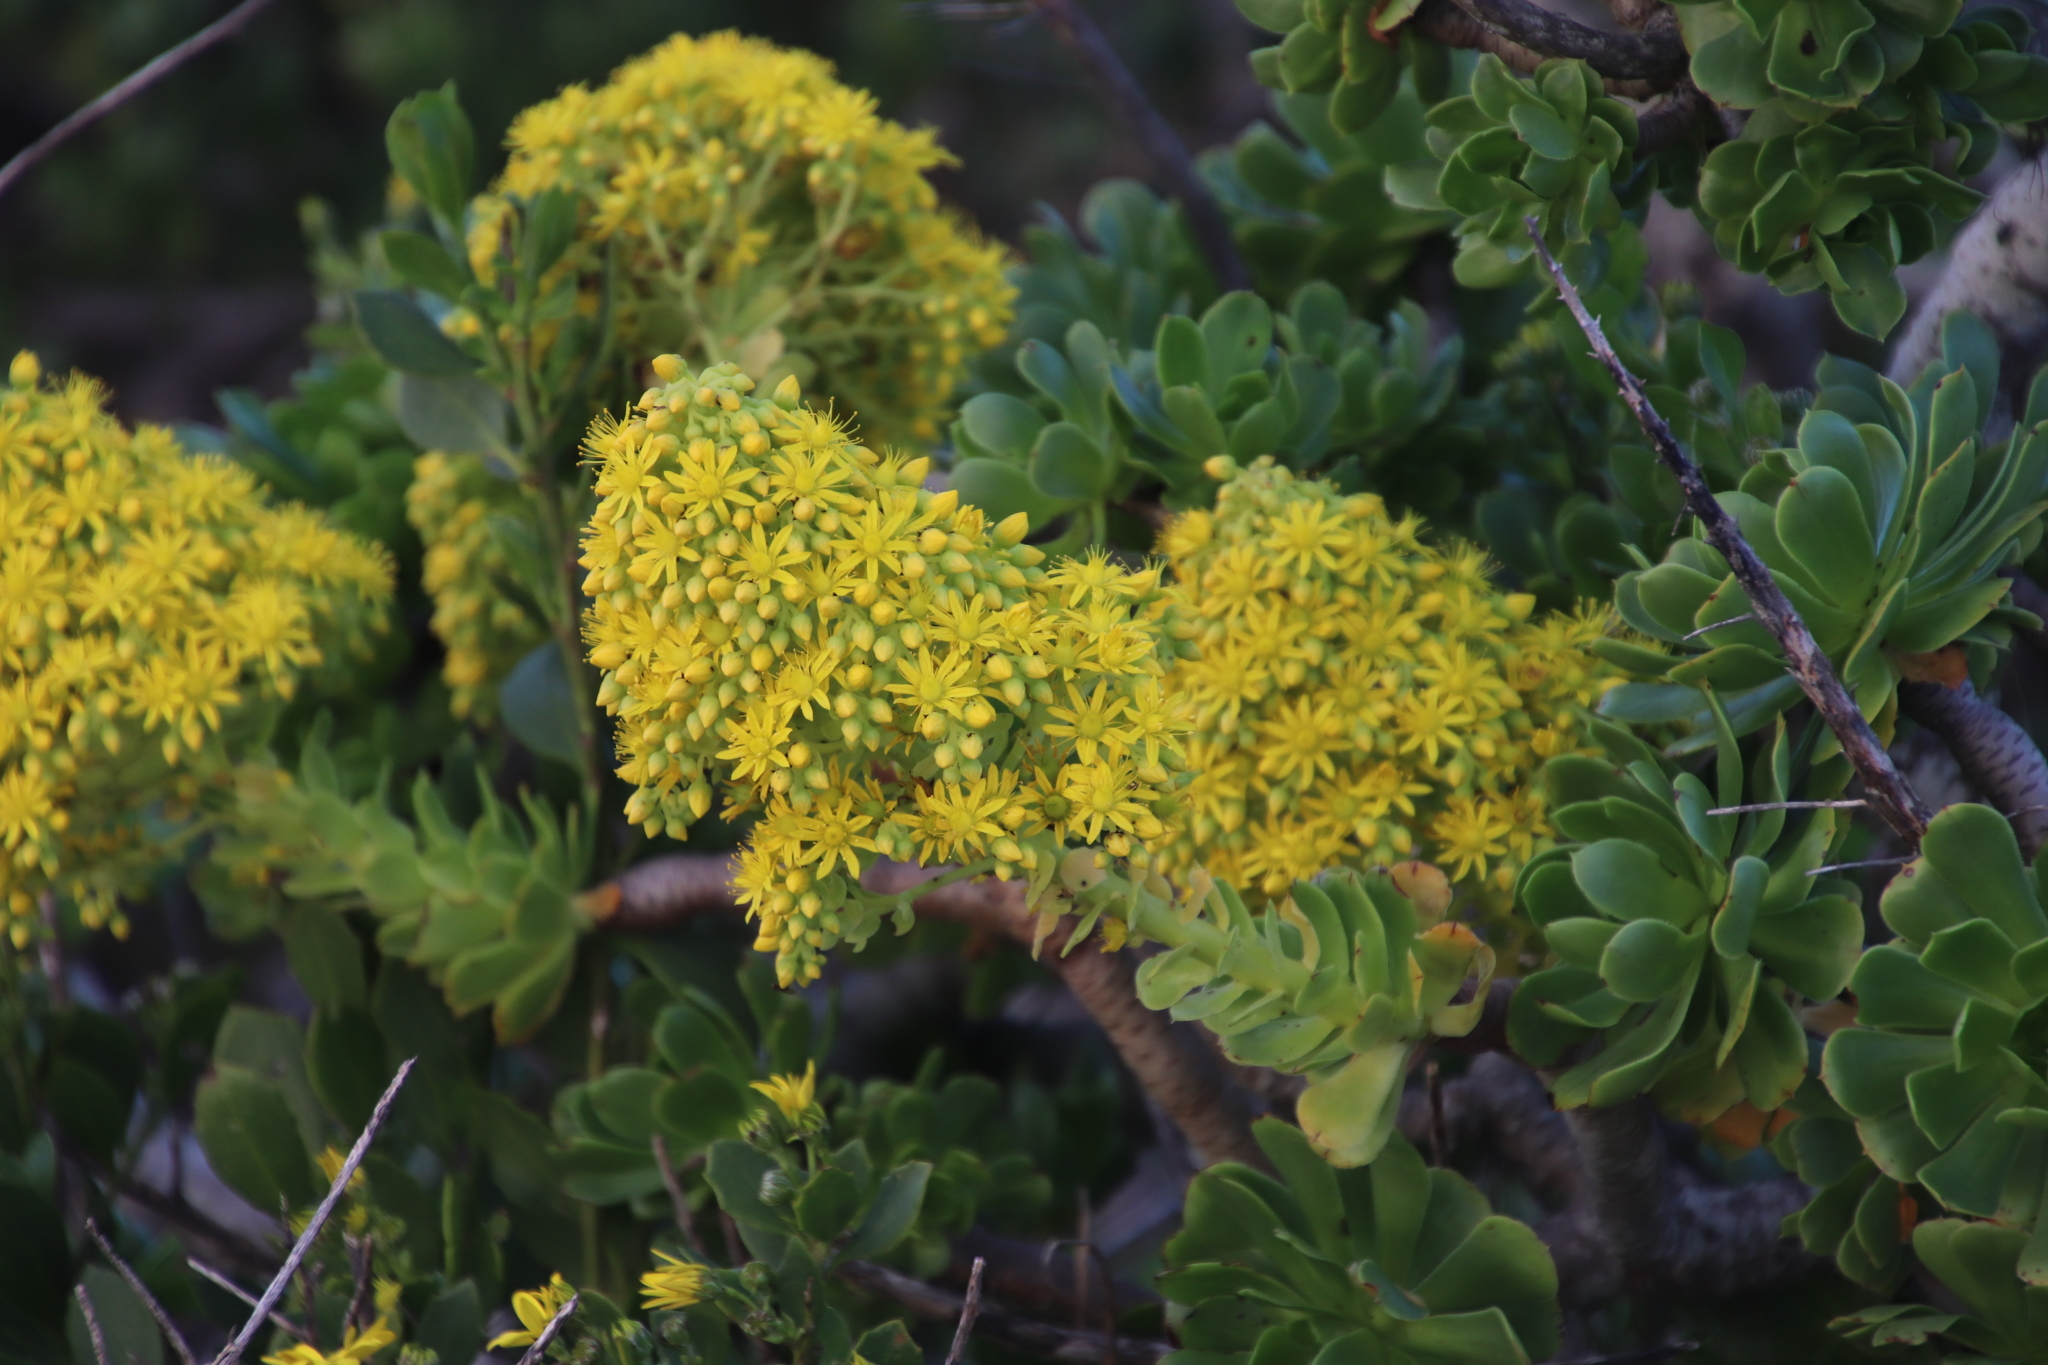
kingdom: Plantae
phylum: Tracheophyta
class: Magnoliopsida
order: Saxifragales
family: Crassulaceae
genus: Aeonium
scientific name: Aeonium arboreum
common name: Tree aeonium
